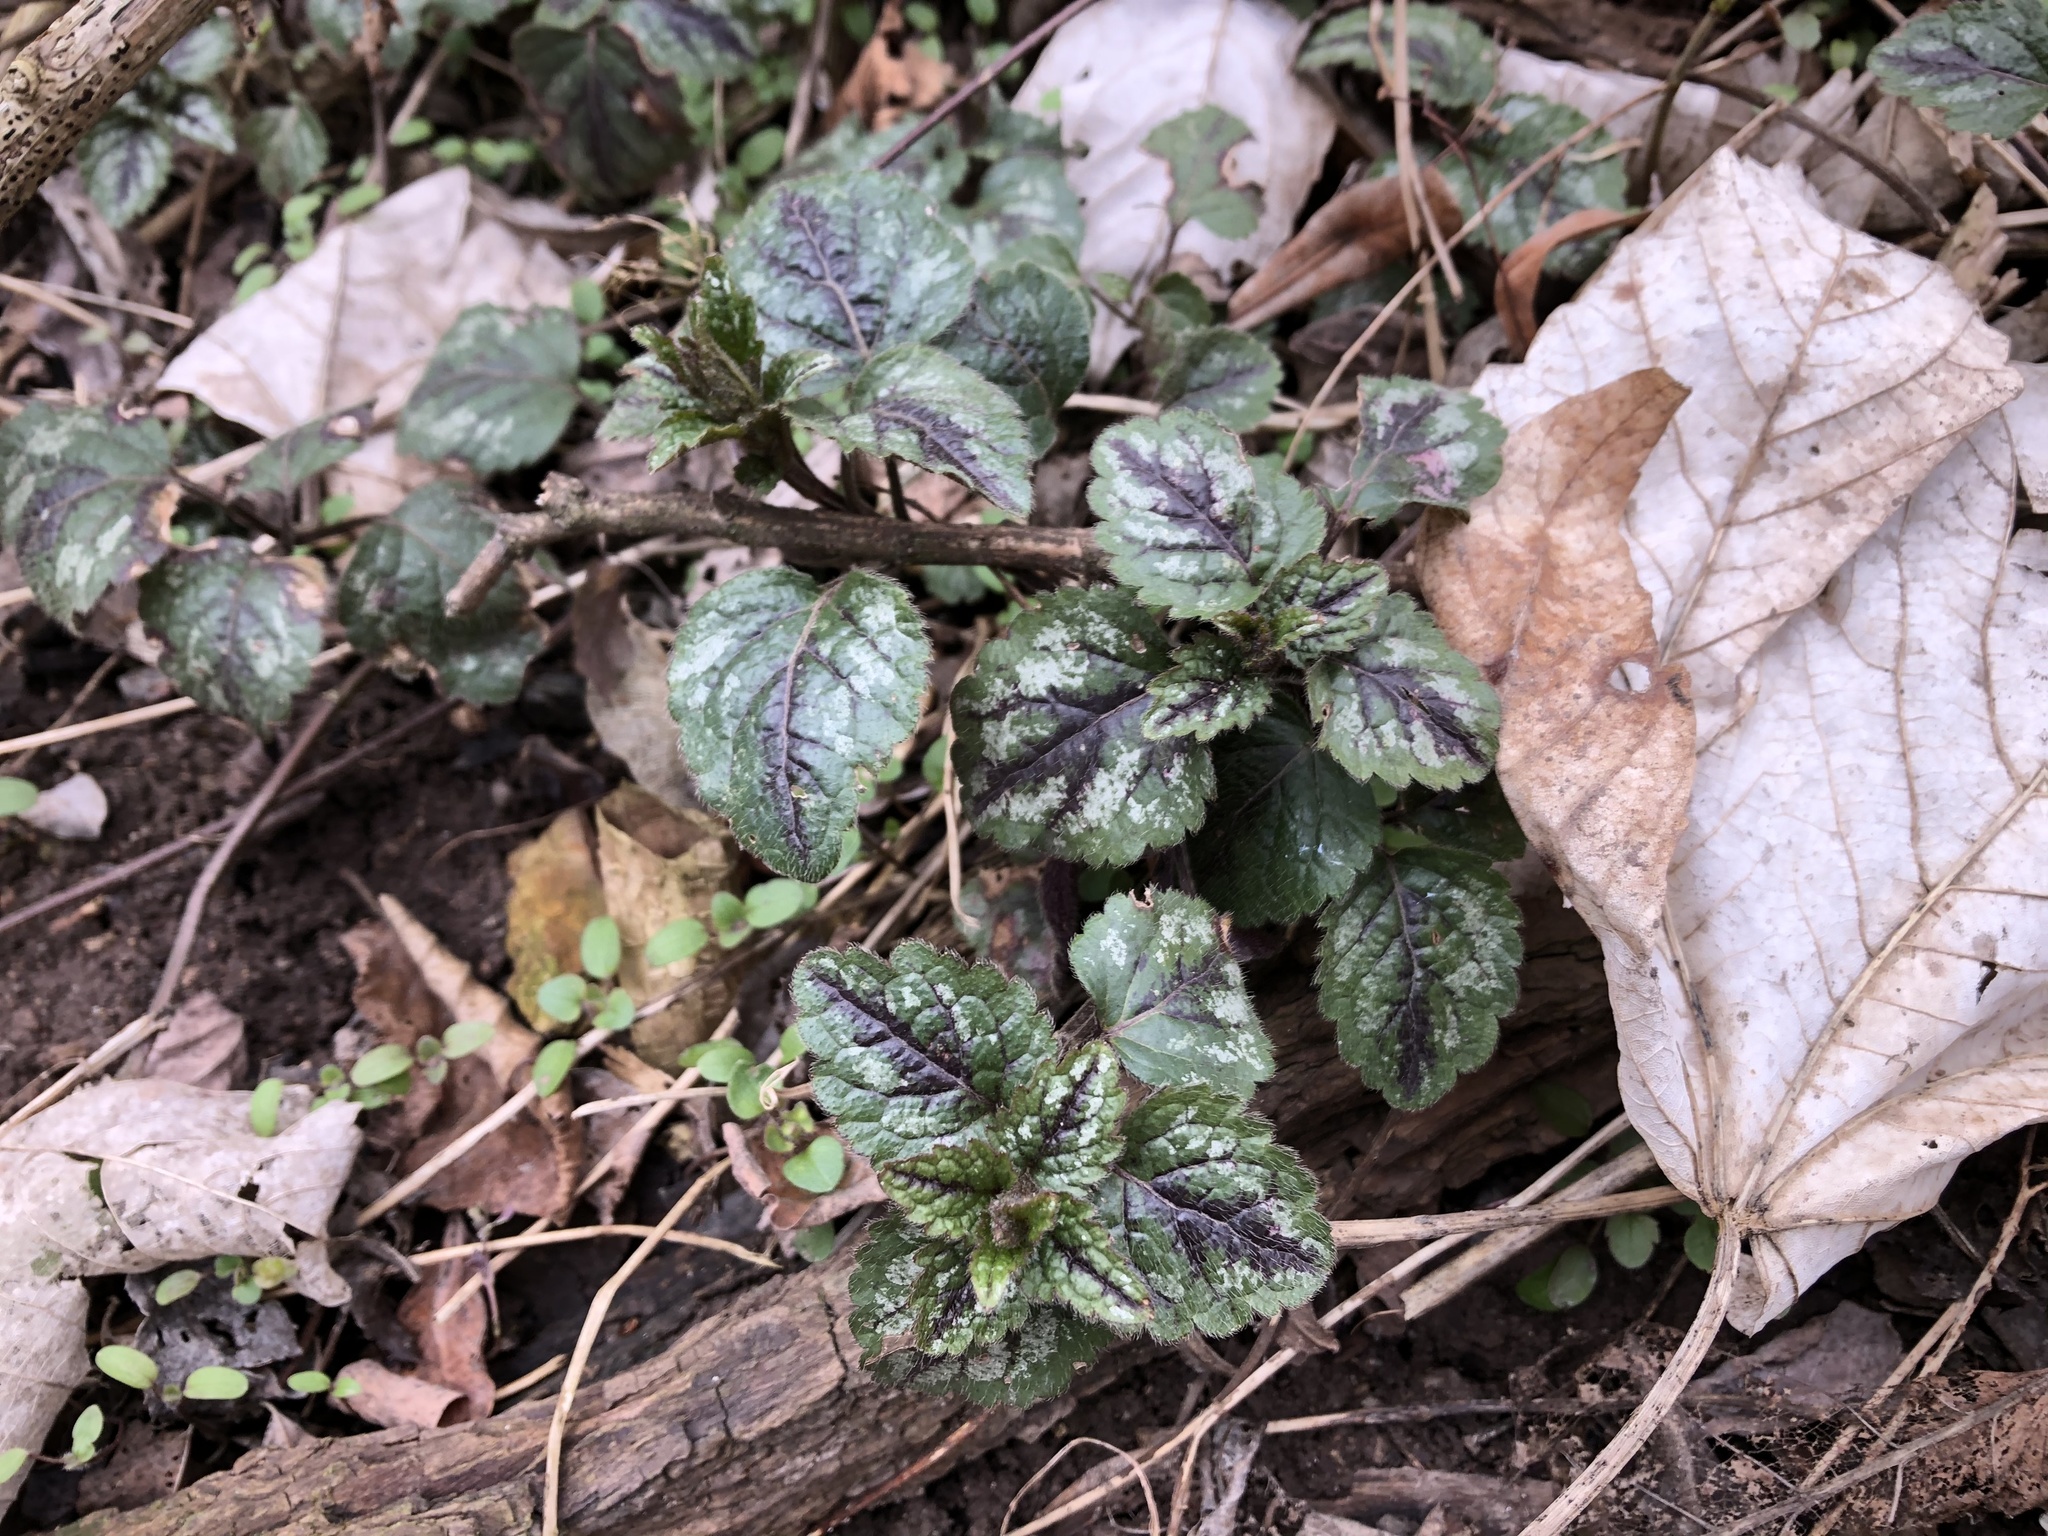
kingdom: Plantae
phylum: Tracheophyta
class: Magnoliopsida
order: Lamiales
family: Lamiaceae
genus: Lamium
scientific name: Lamium galeobdolon
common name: Yellow archangel
